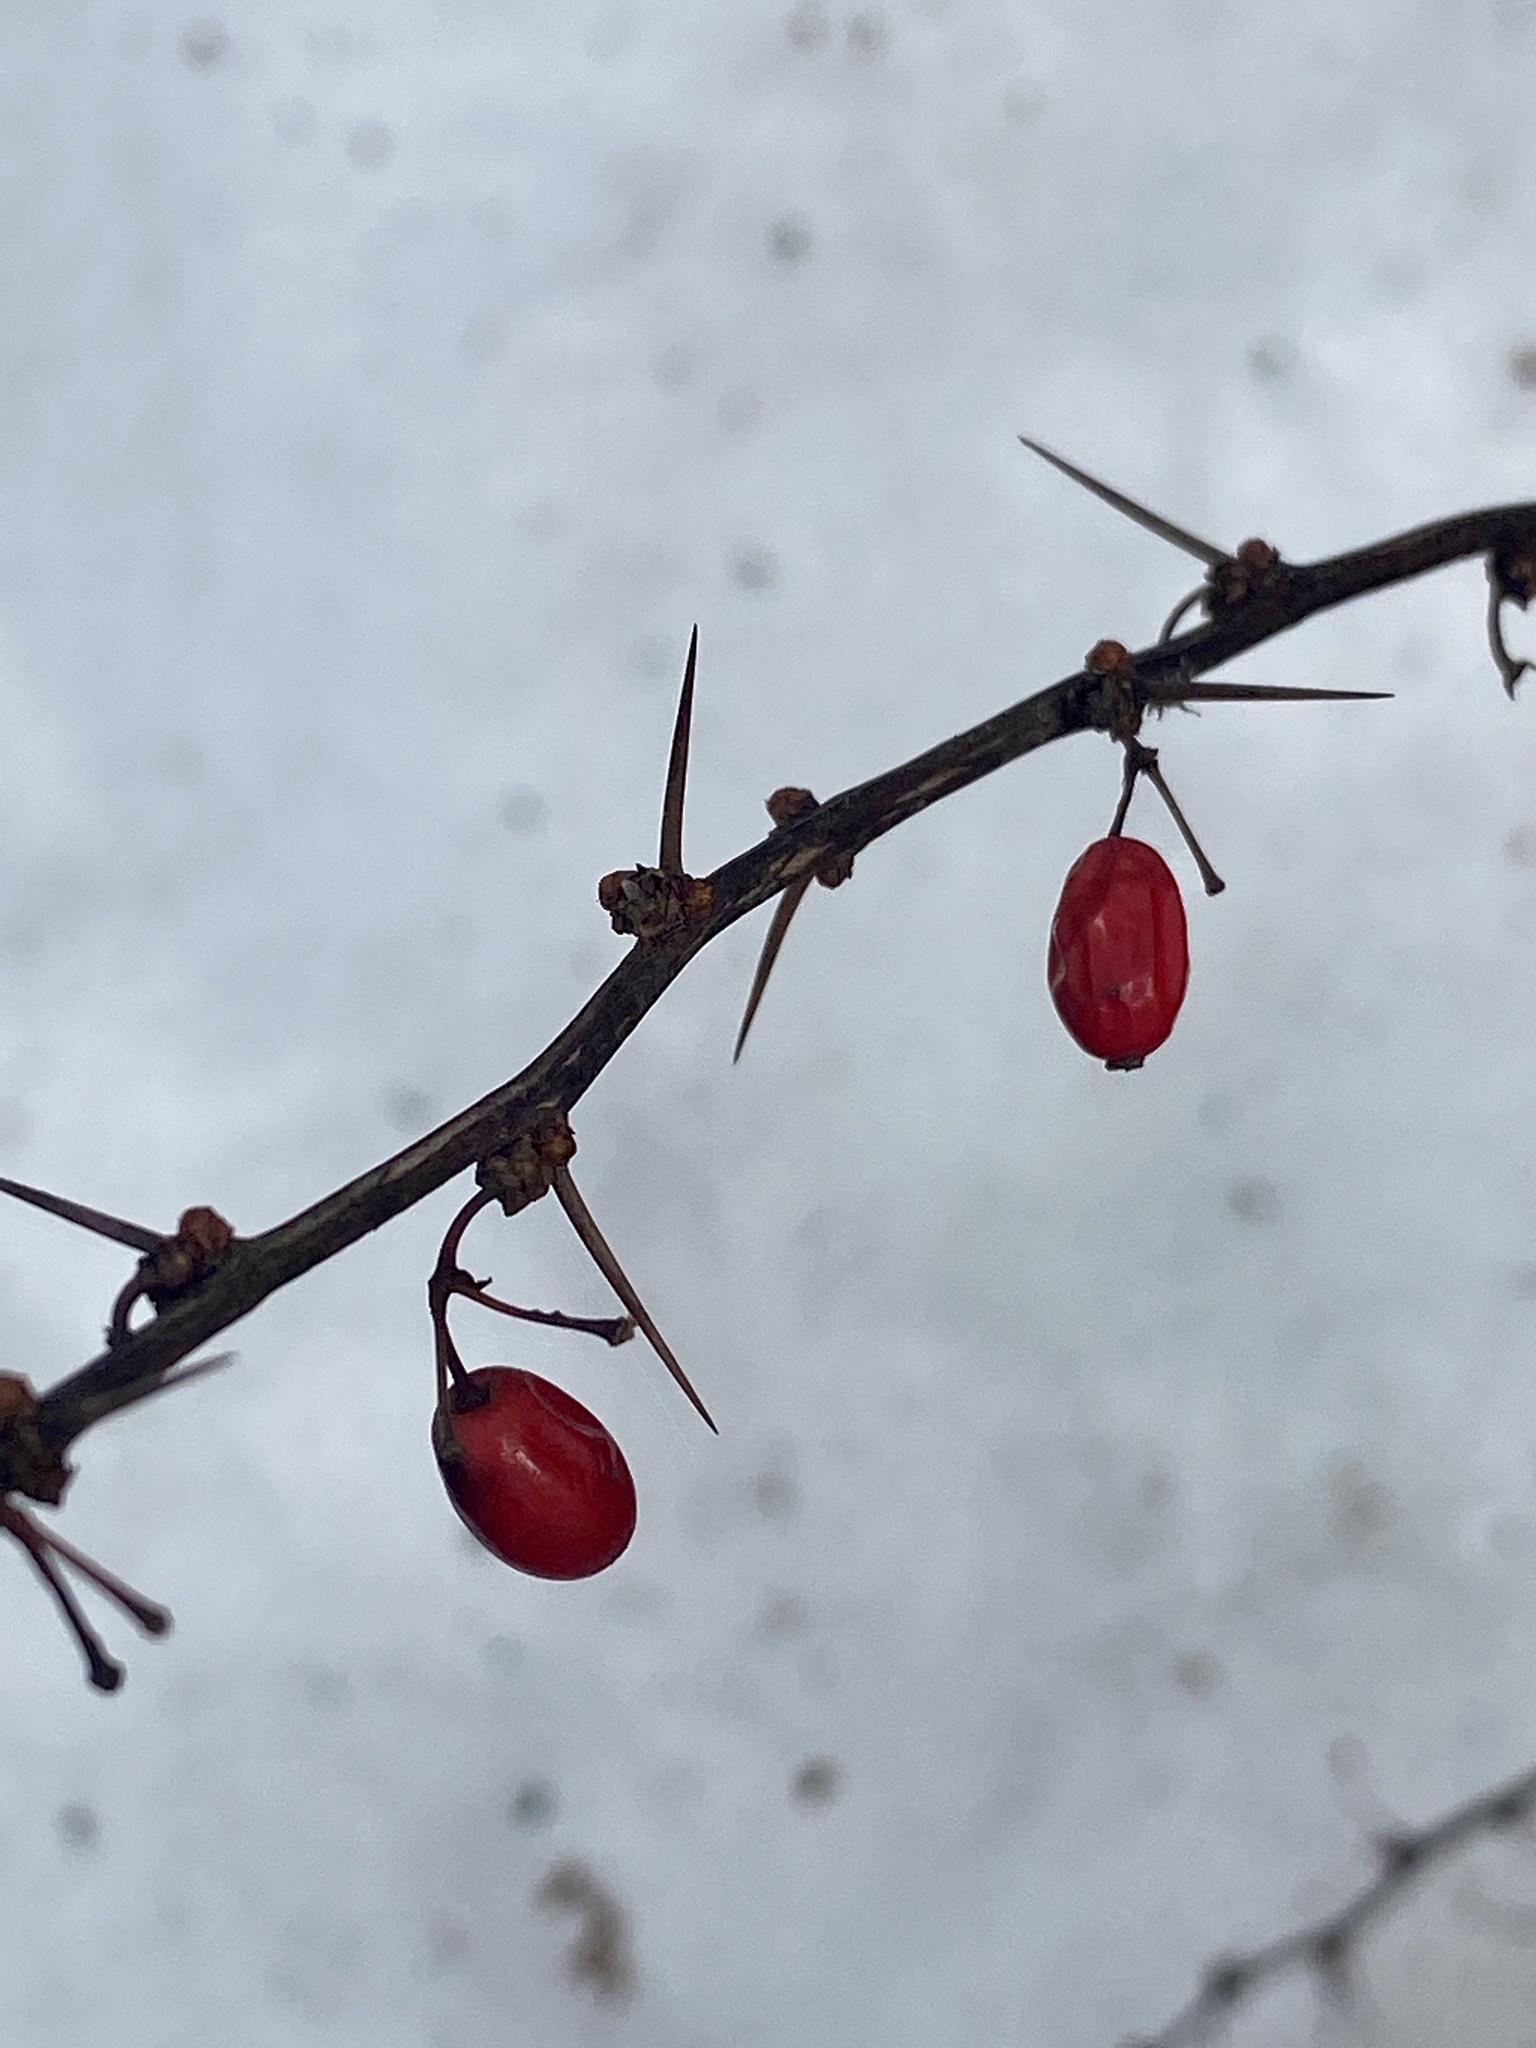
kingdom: Plantae
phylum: Tracheophyta
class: Magnoliopsida
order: Ranunculales
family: Berberidaceae
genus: Berberis
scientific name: Berberis thunbergii
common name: Japanese barberry
